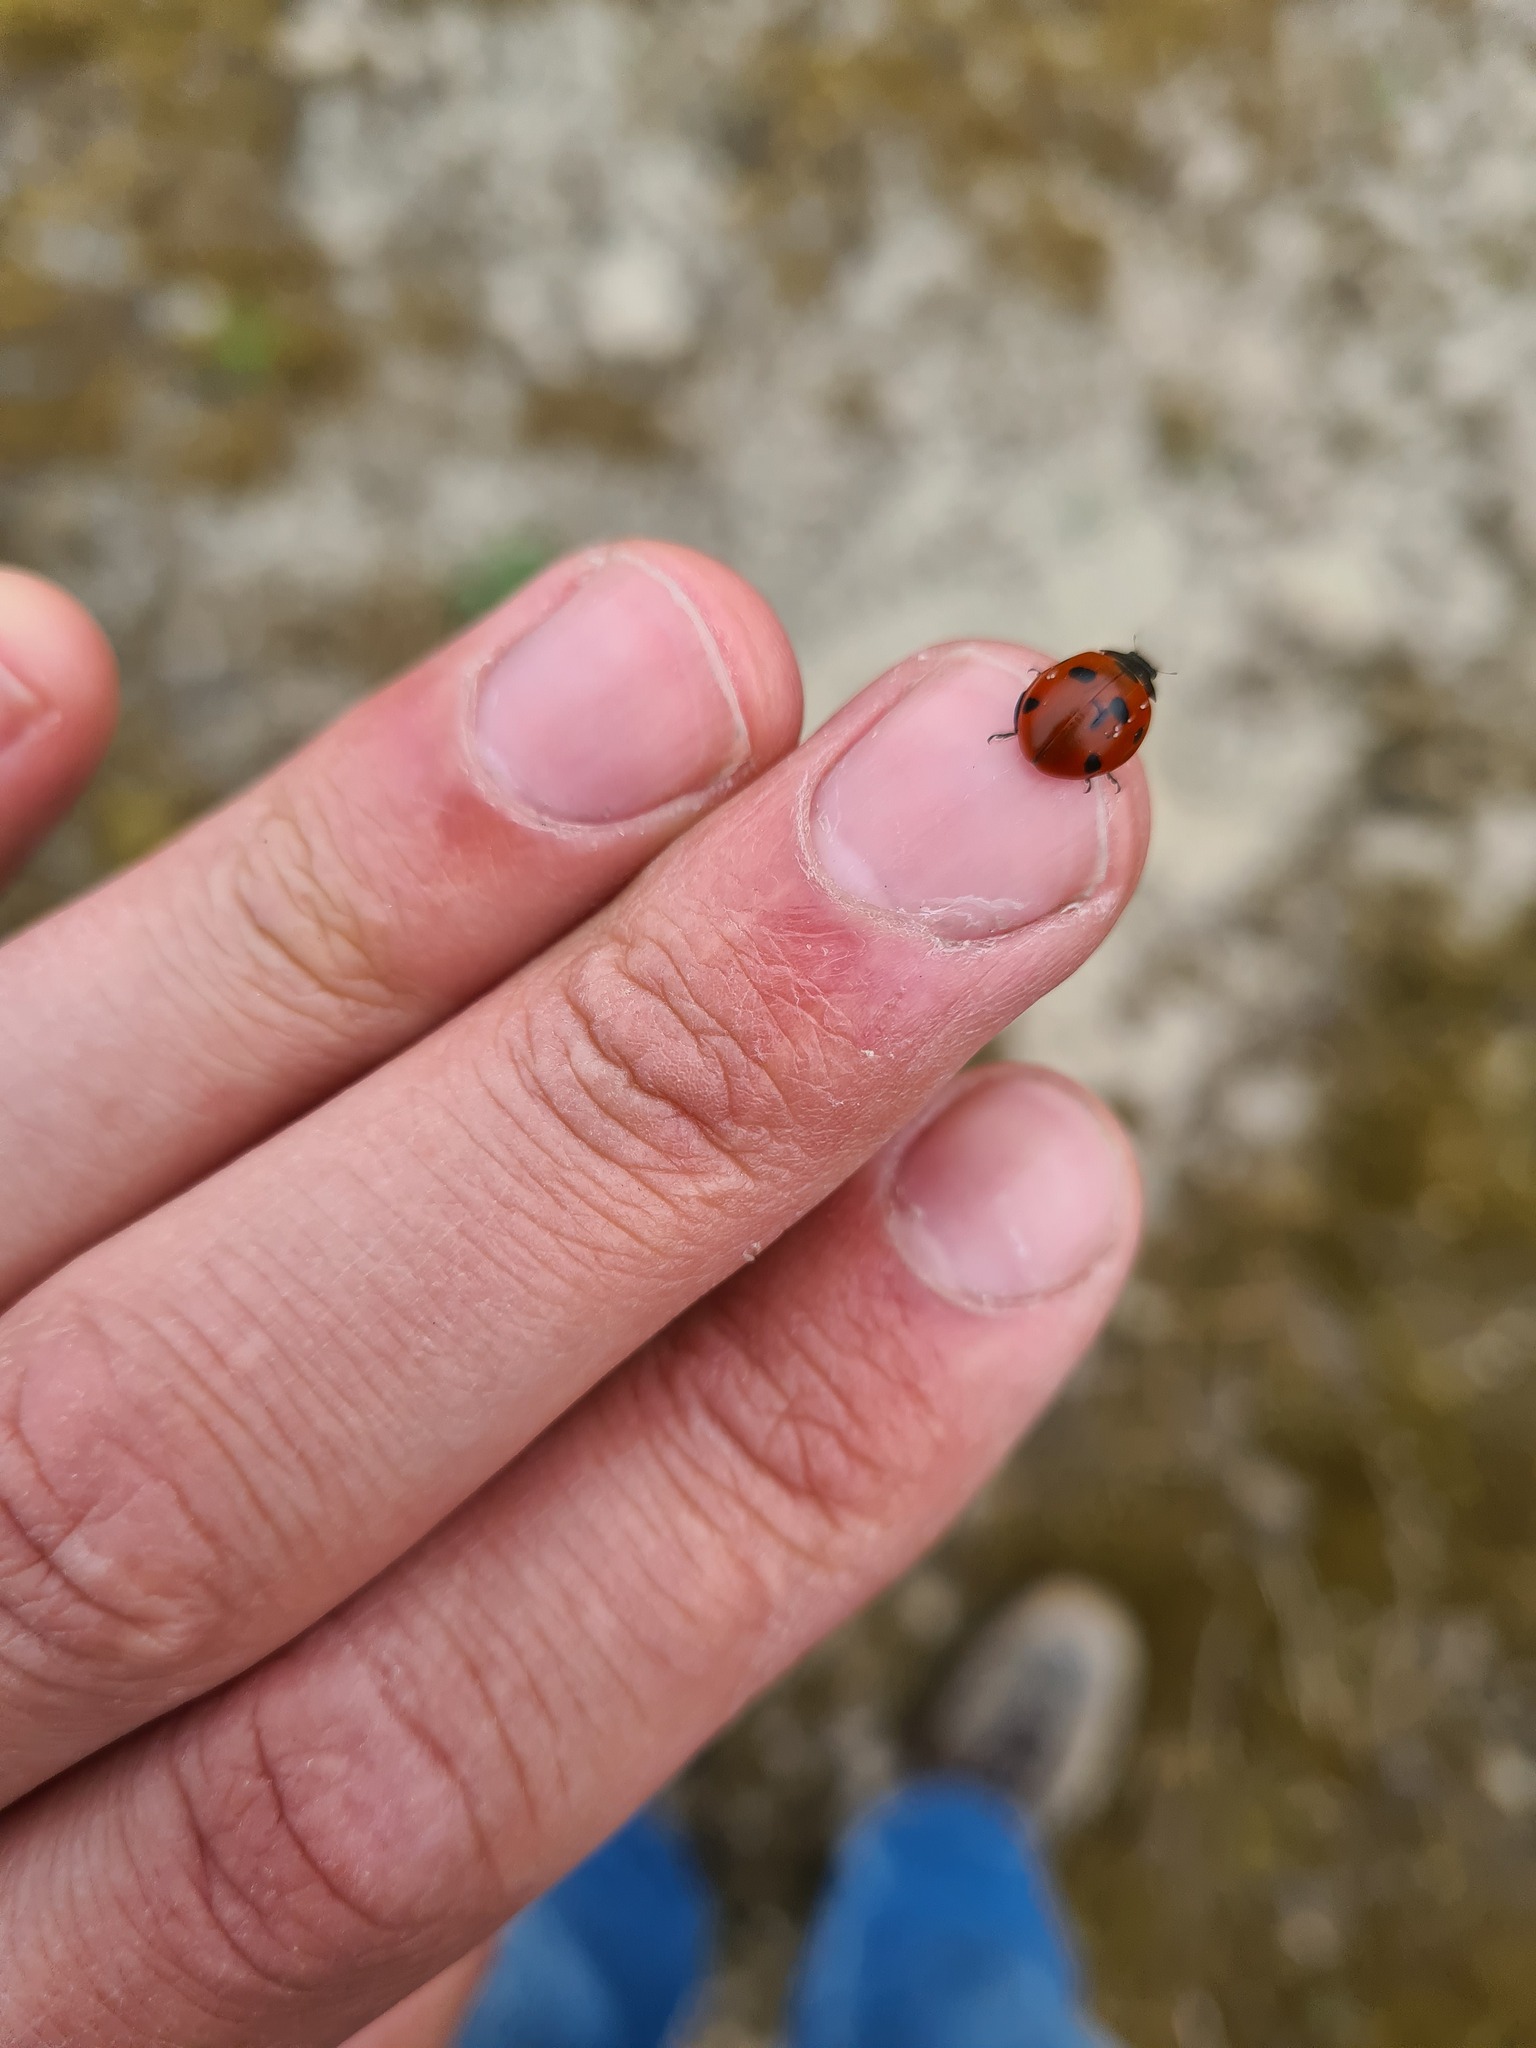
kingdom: Animalia
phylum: Arthropoda
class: Insecta
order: Coleoptera
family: Coccinellidae
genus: Coccinella
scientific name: Coccinella septempunctata
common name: Sevenspotted lady beetle
